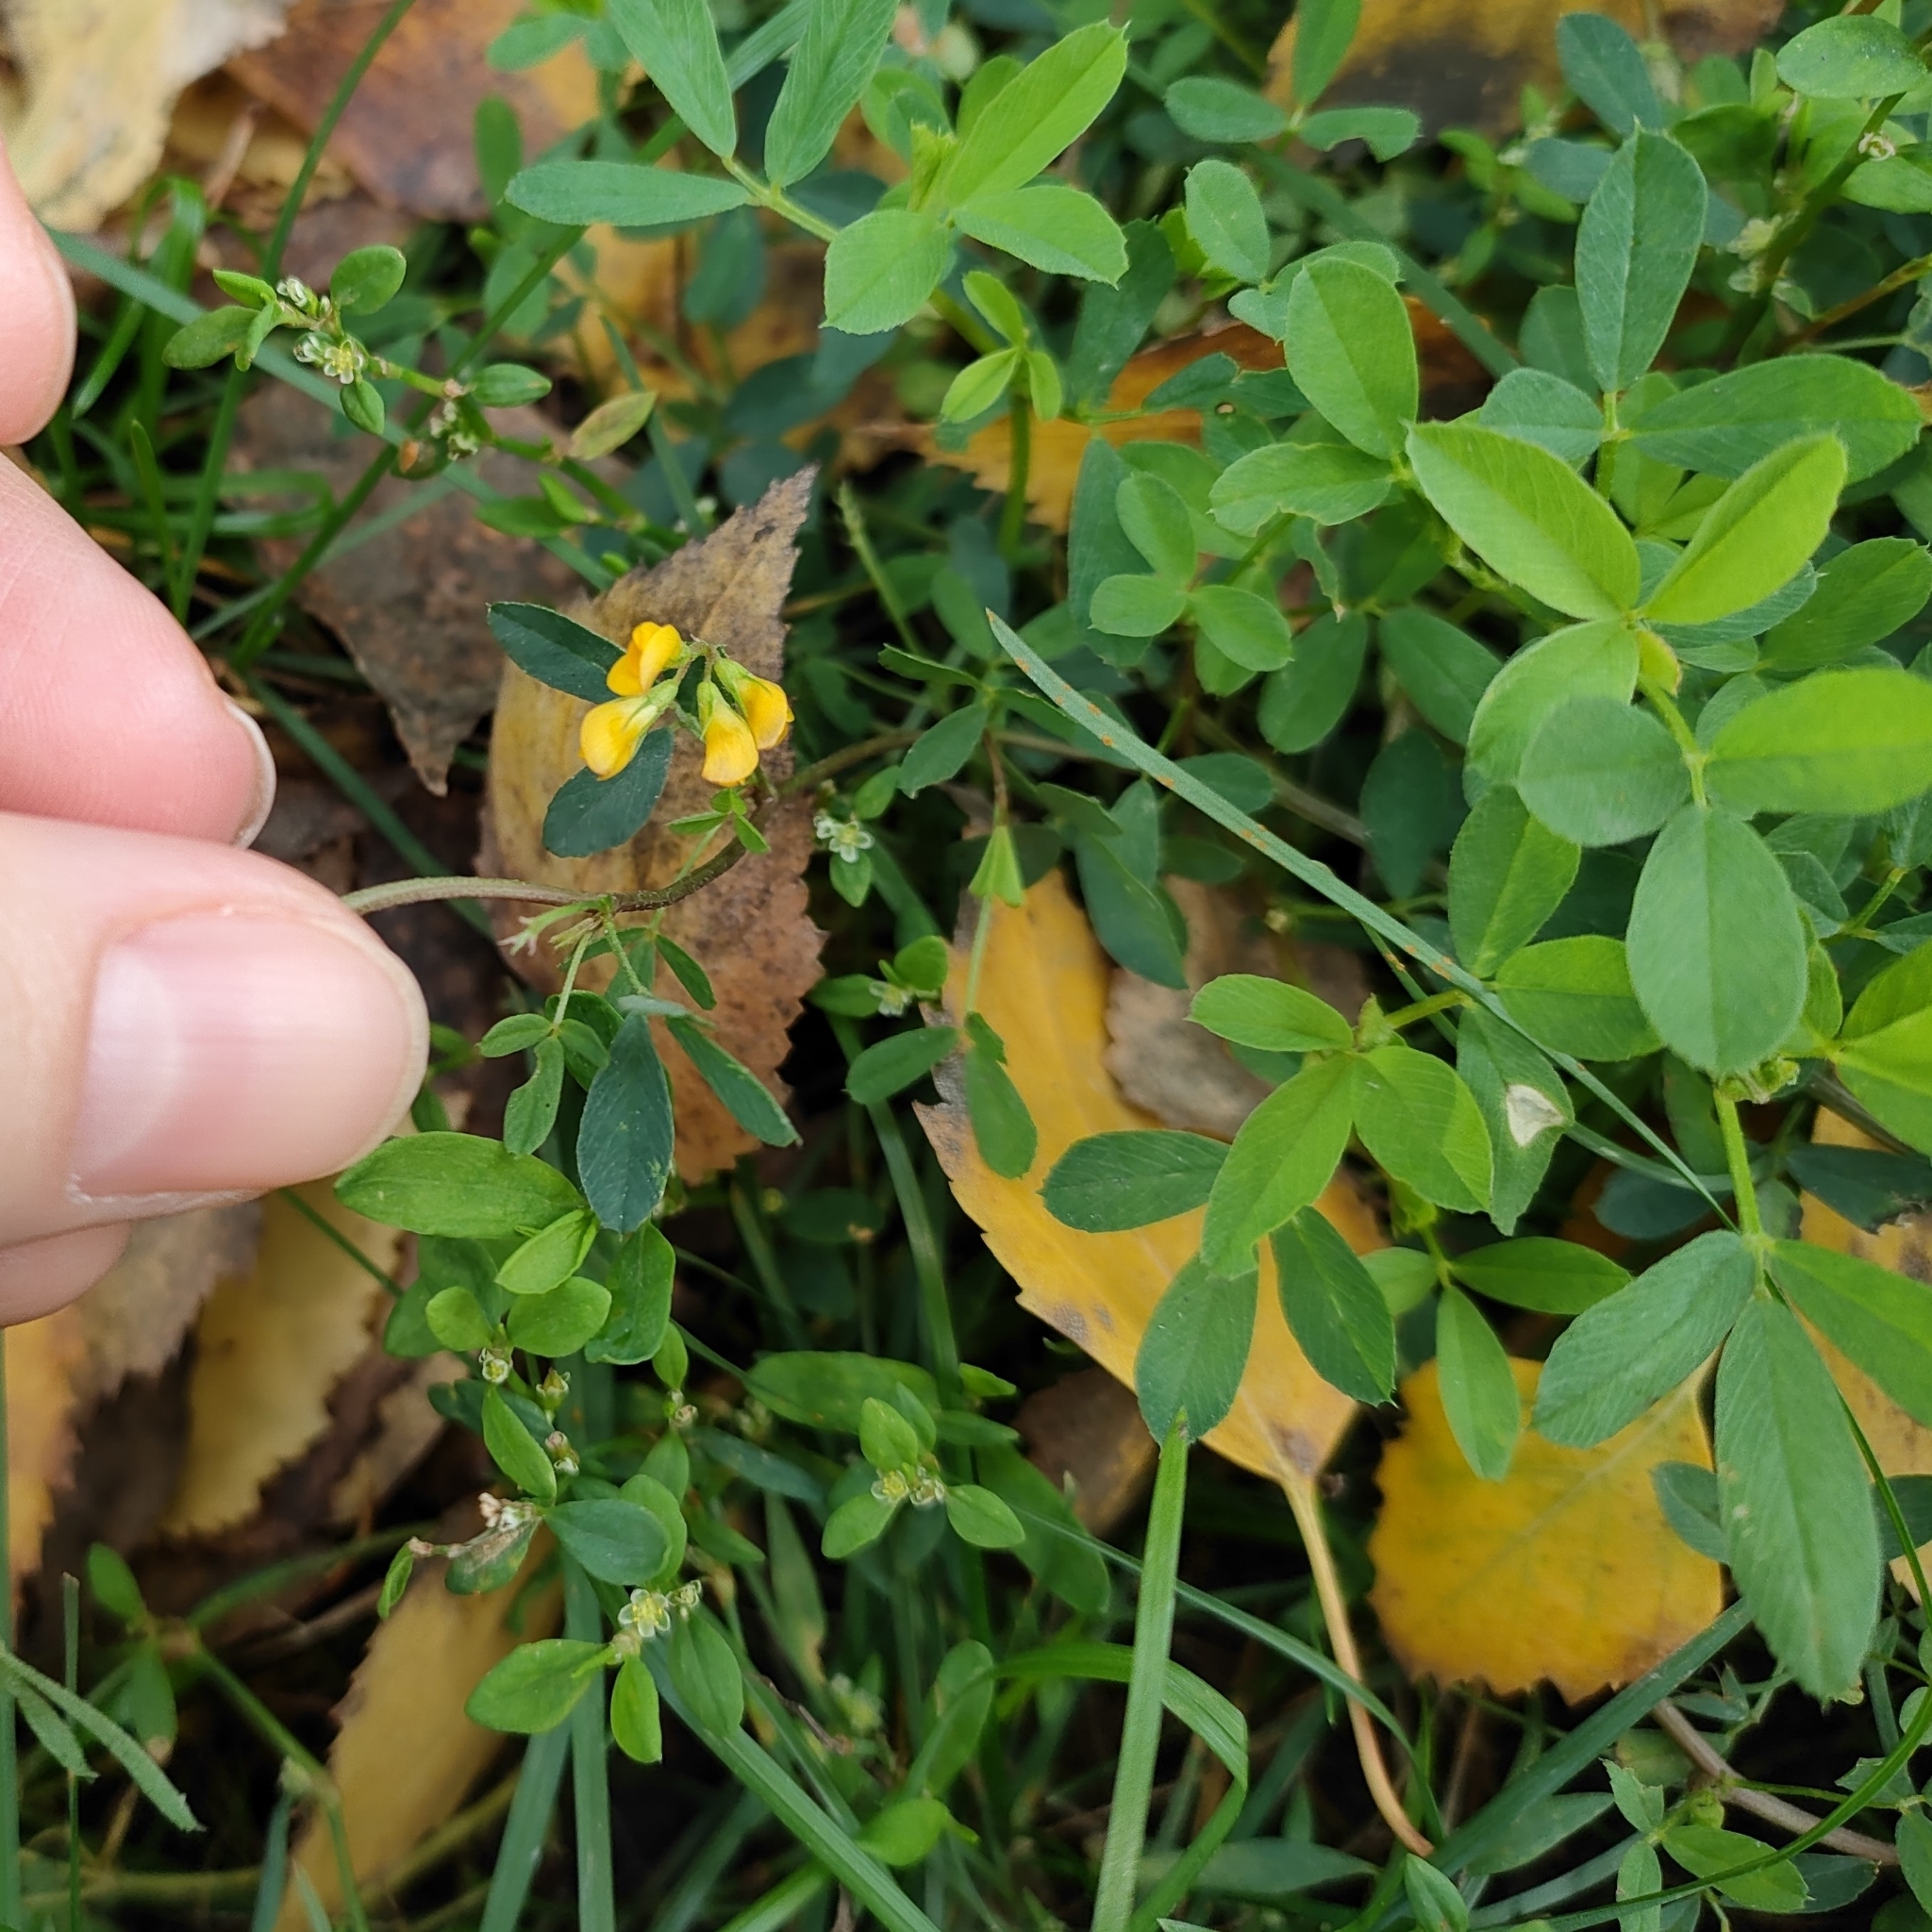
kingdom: Plantae
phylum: Tracheophyta
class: Magnoliopsida
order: Fabales
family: Fabaceae
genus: Medicago
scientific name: Medicago falcata
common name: Sickle medick
